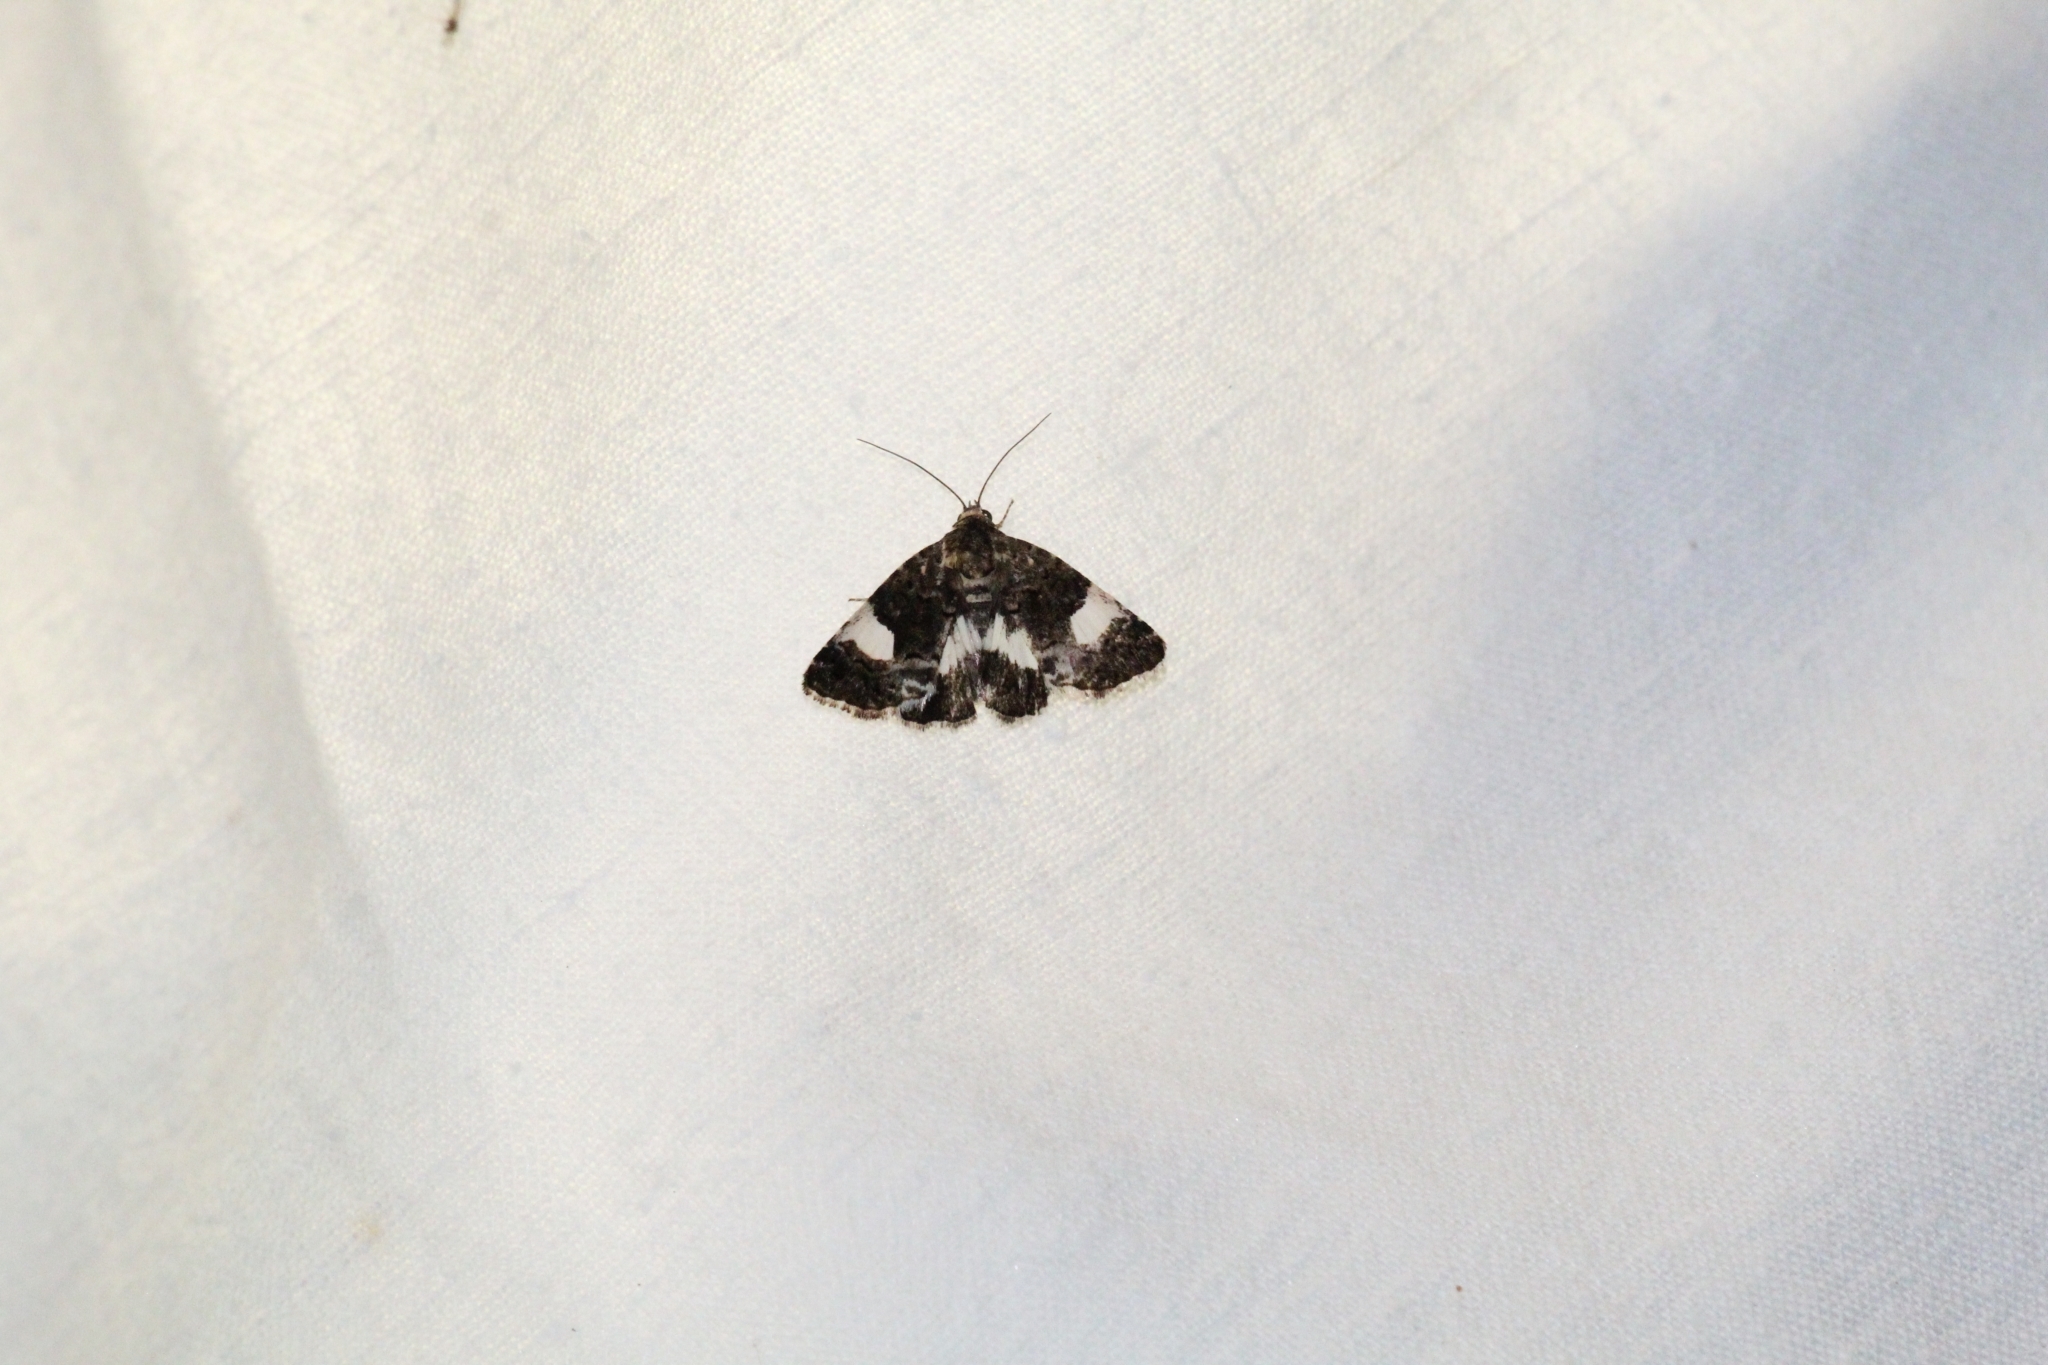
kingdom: Animalia
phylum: Arthropoda
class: Insecta
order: Lepidoptera
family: Erebidae
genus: Tyta
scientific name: Tyta luctuosa
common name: Four-spotted
